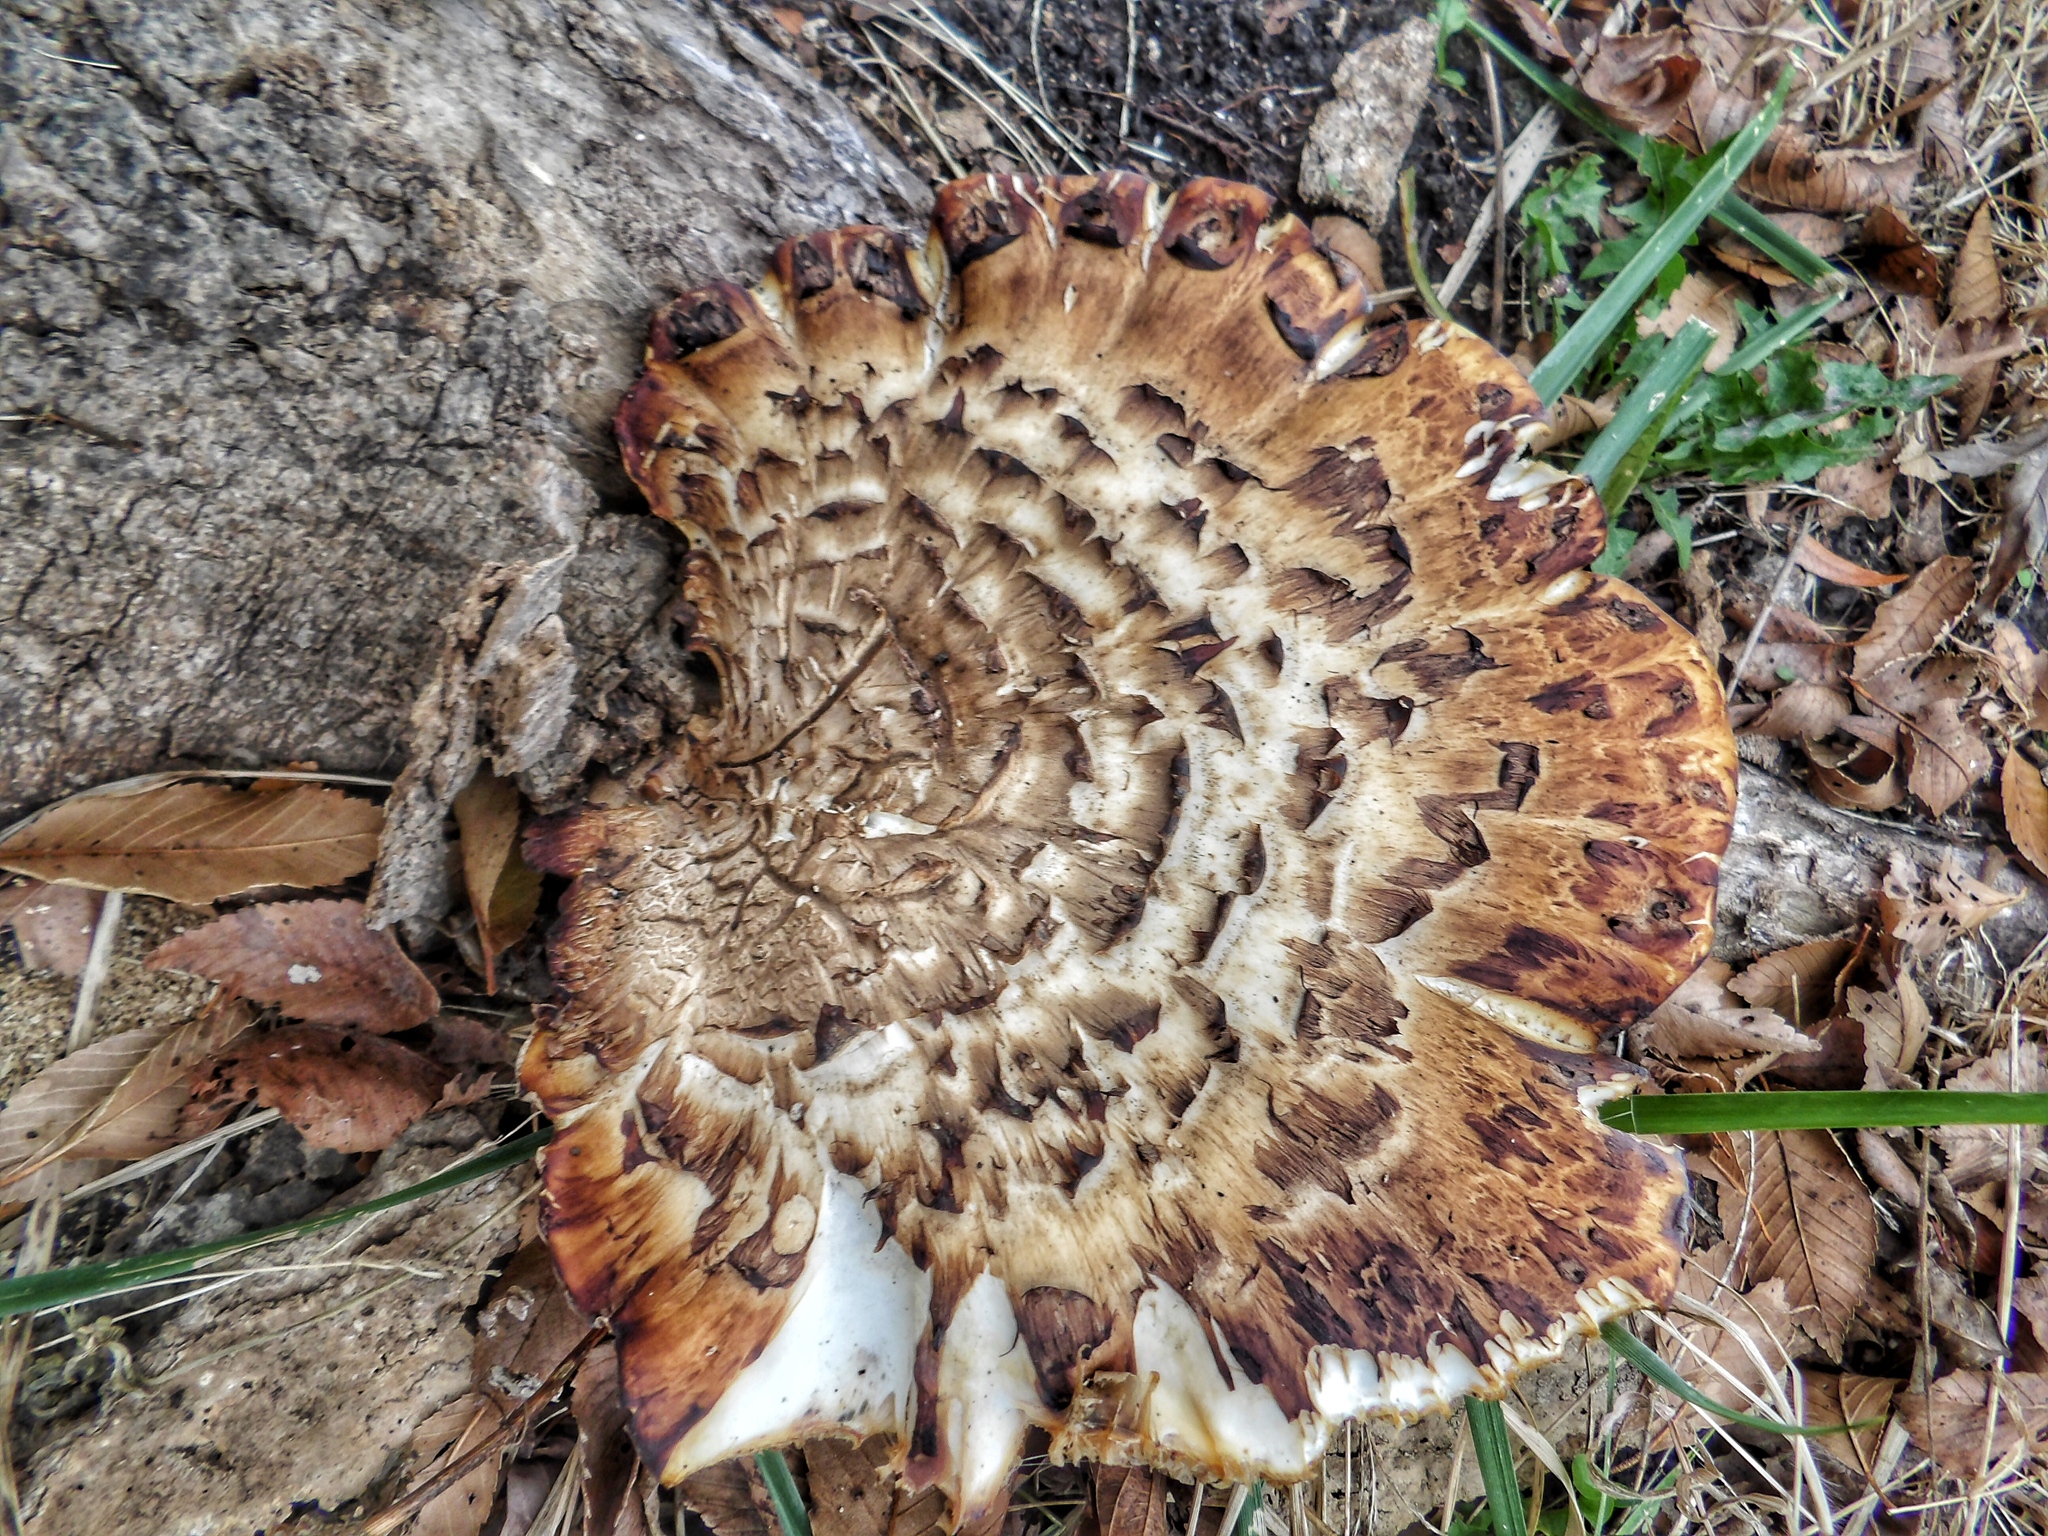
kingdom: Fungi
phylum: Basidiomycota
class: Agaricomycetes
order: Polyporales
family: Polyporaceae
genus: Cerioporus
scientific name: Cerioporus squamosus
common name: Dryad's saddle
